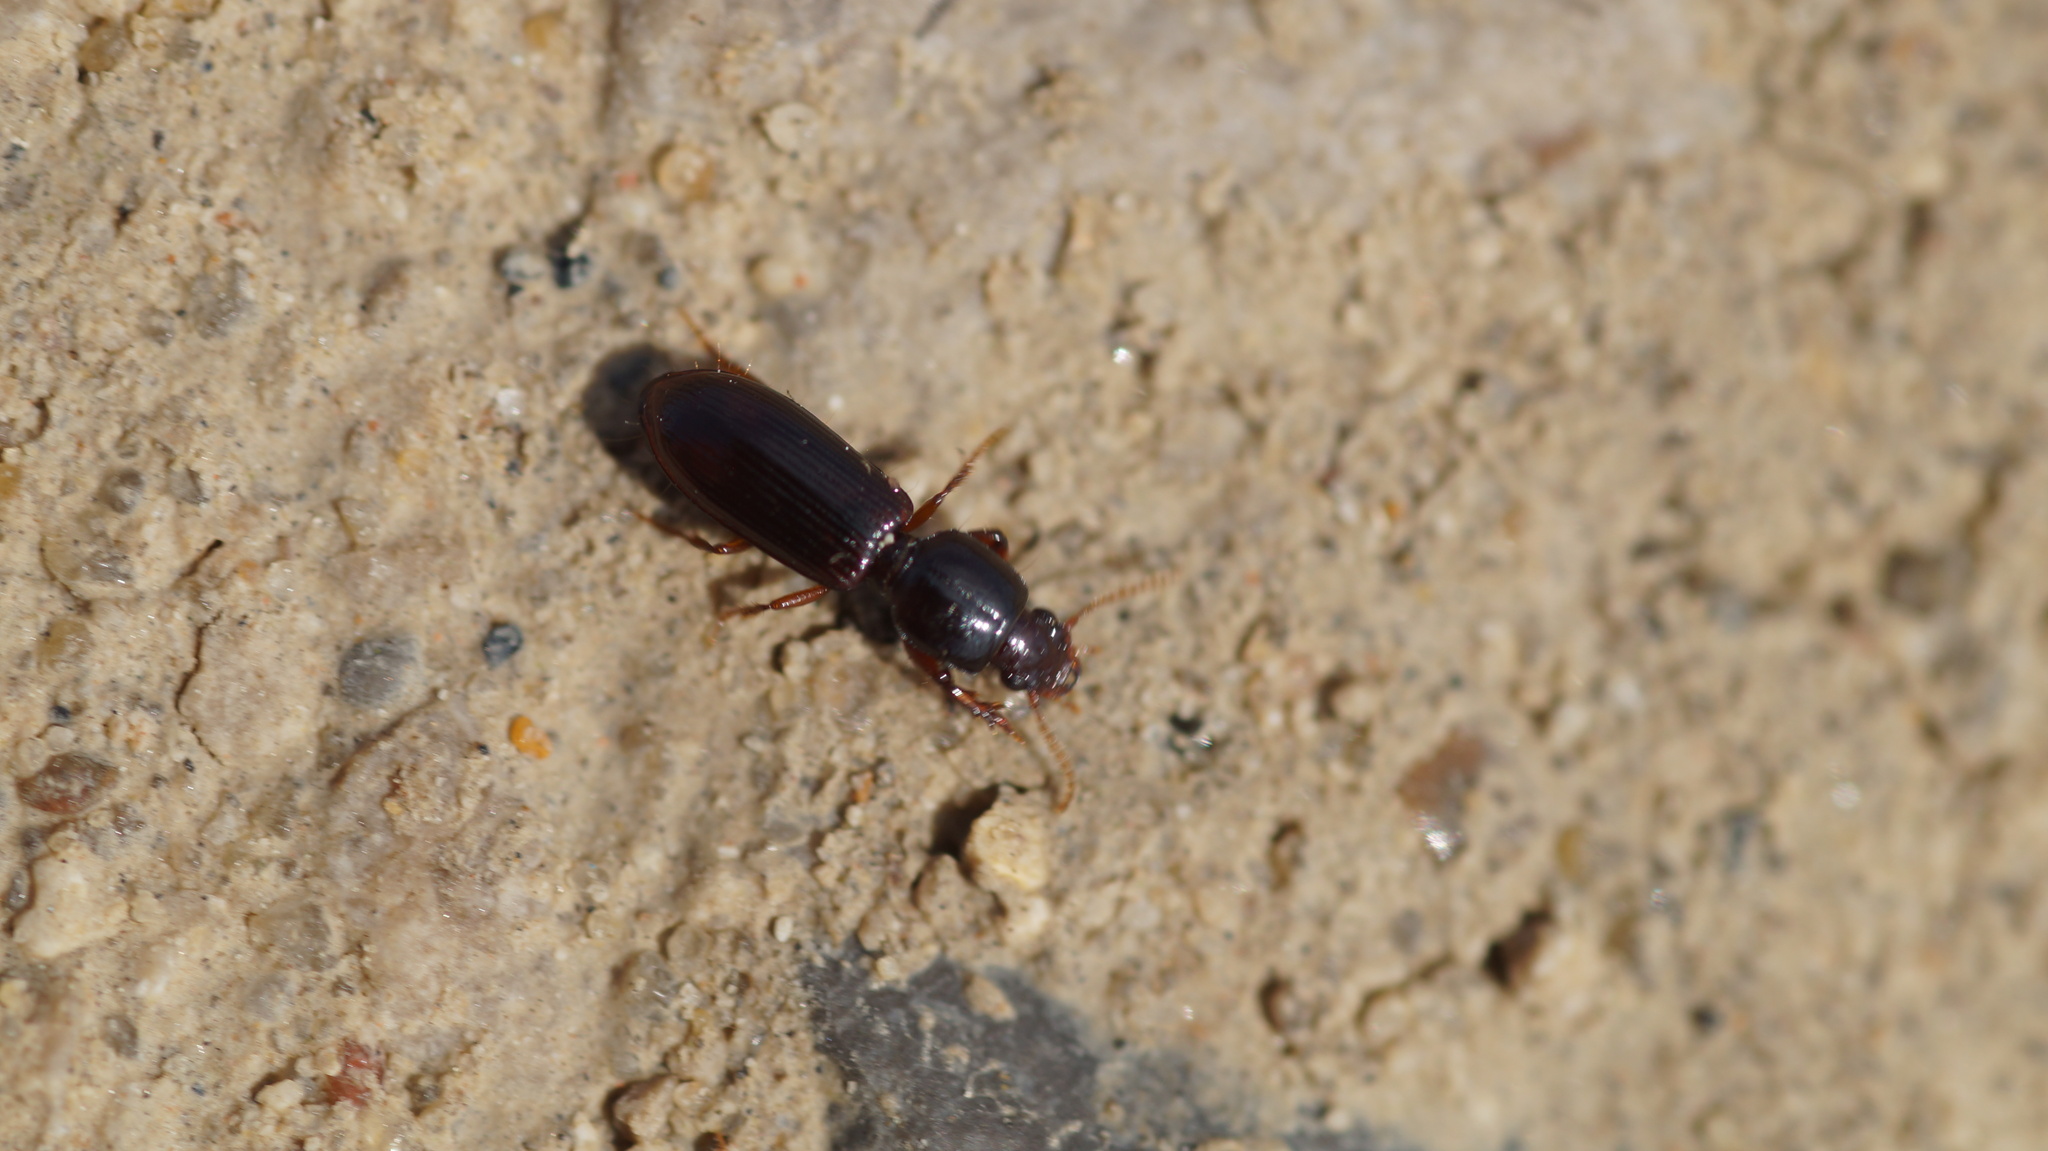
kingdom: Animalia
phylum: Arthropoda
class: Insecta
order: Coleoptera
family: Carabidae
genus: Clivina
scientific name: Clivina fossor
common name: Digging pedunculate ground beetle
